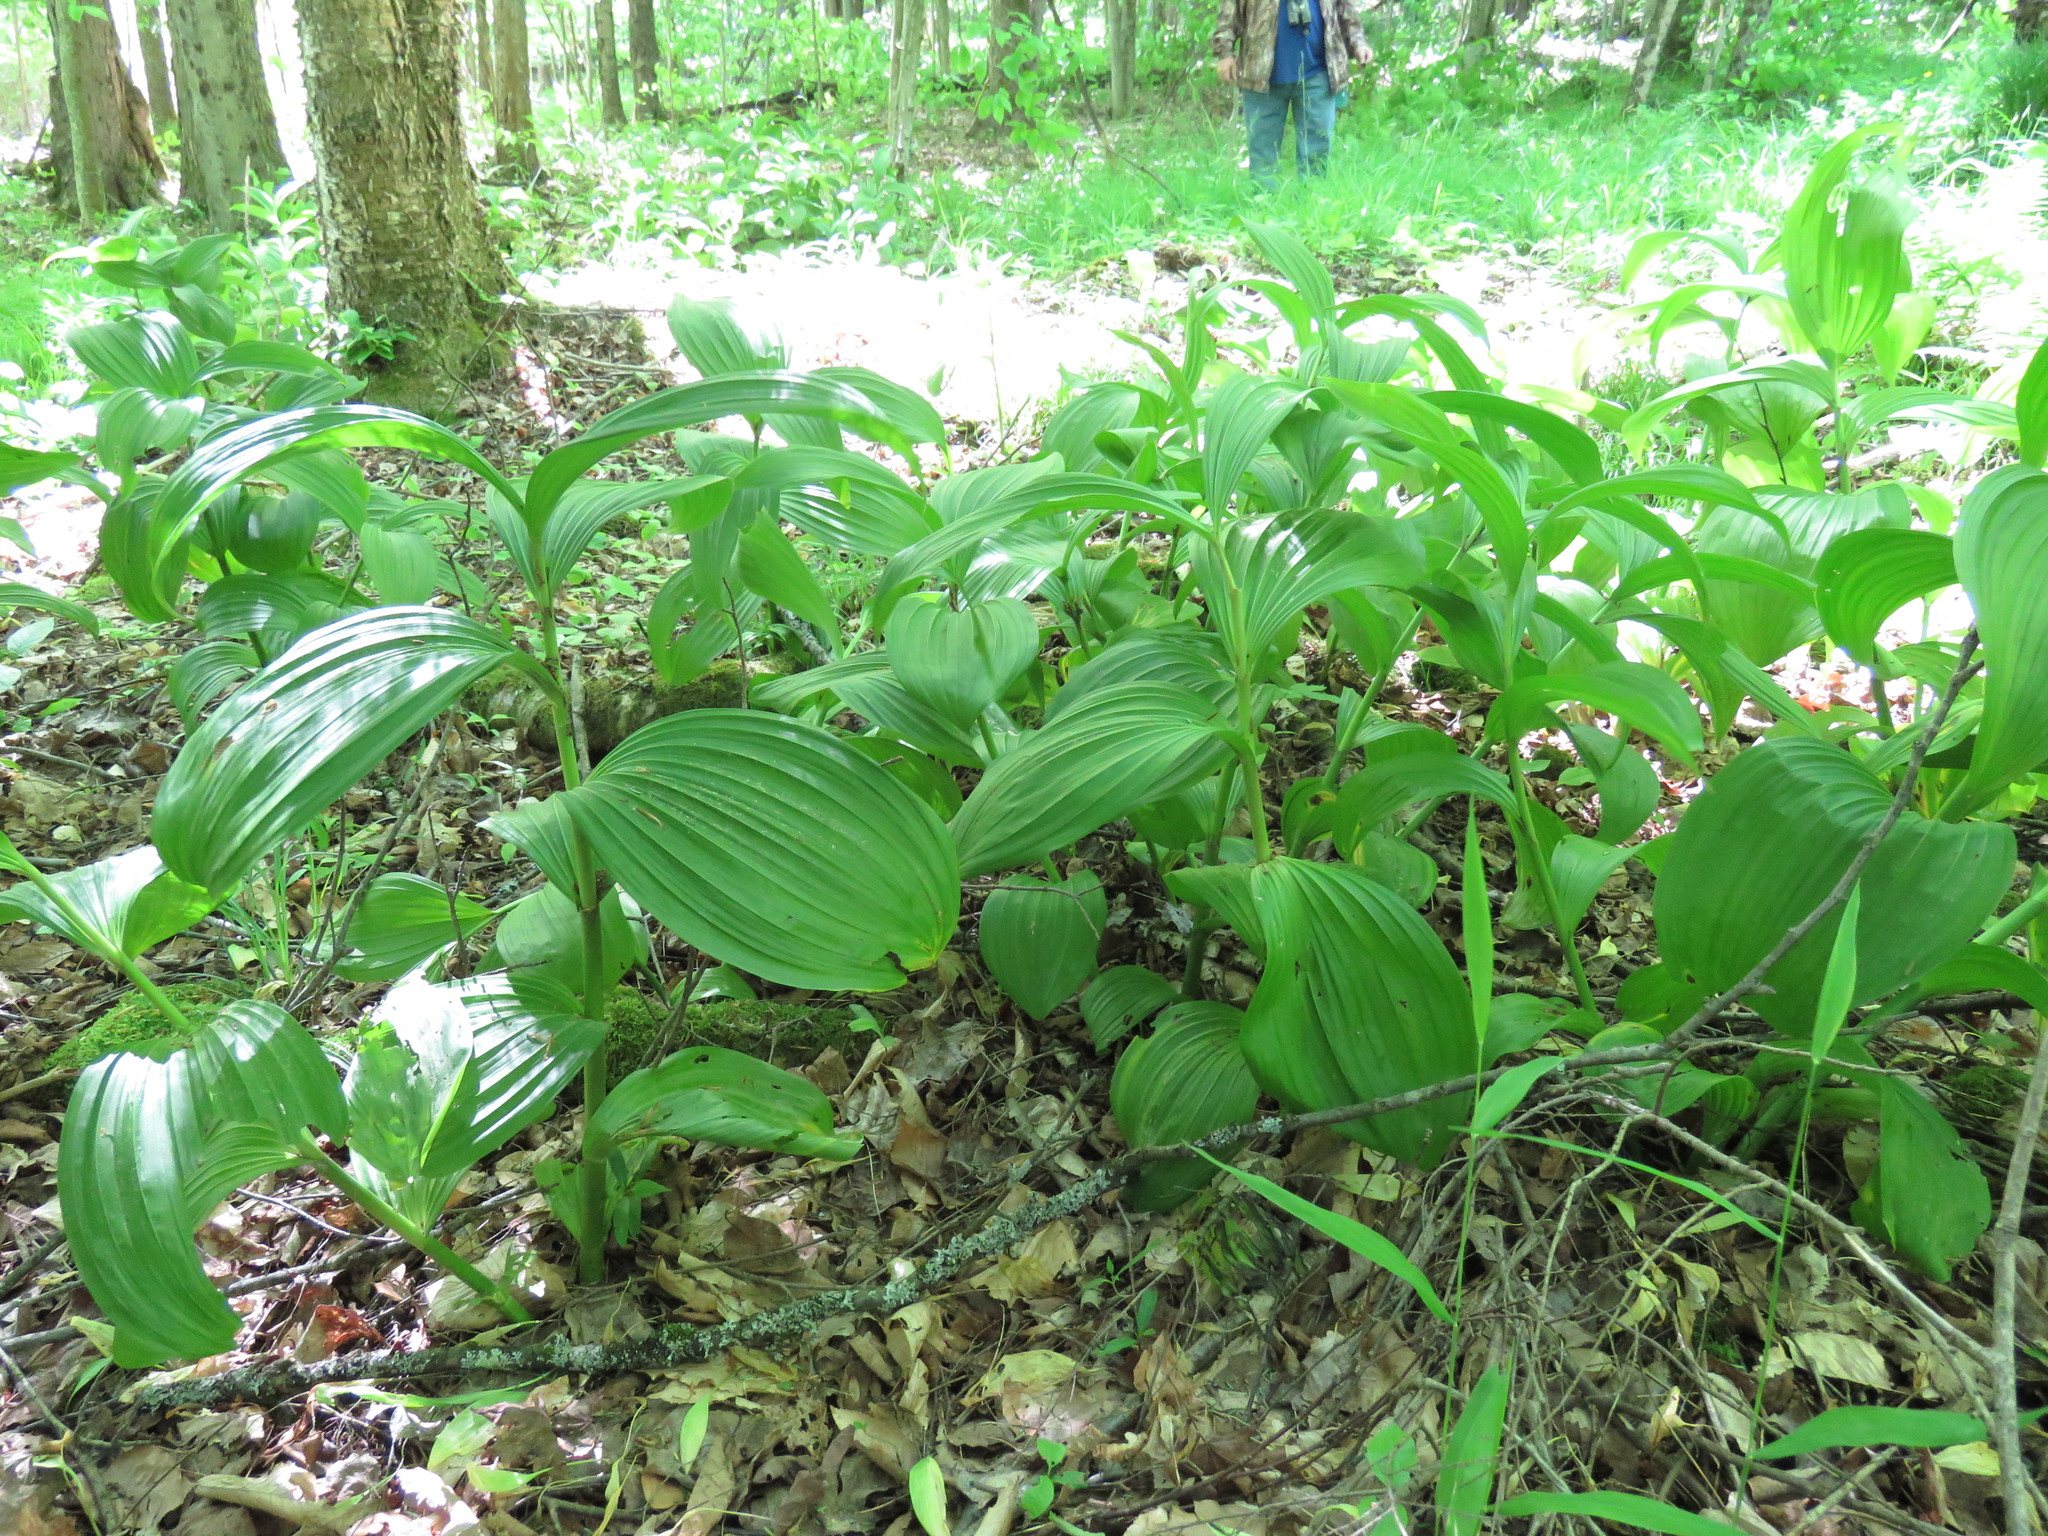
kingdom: Plantae
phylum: Tracheophyta
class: Liliopsida
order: Liliales
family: Melanthiaceae
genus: Veratrum
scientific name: Veratrum viride
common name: American false hellebore
